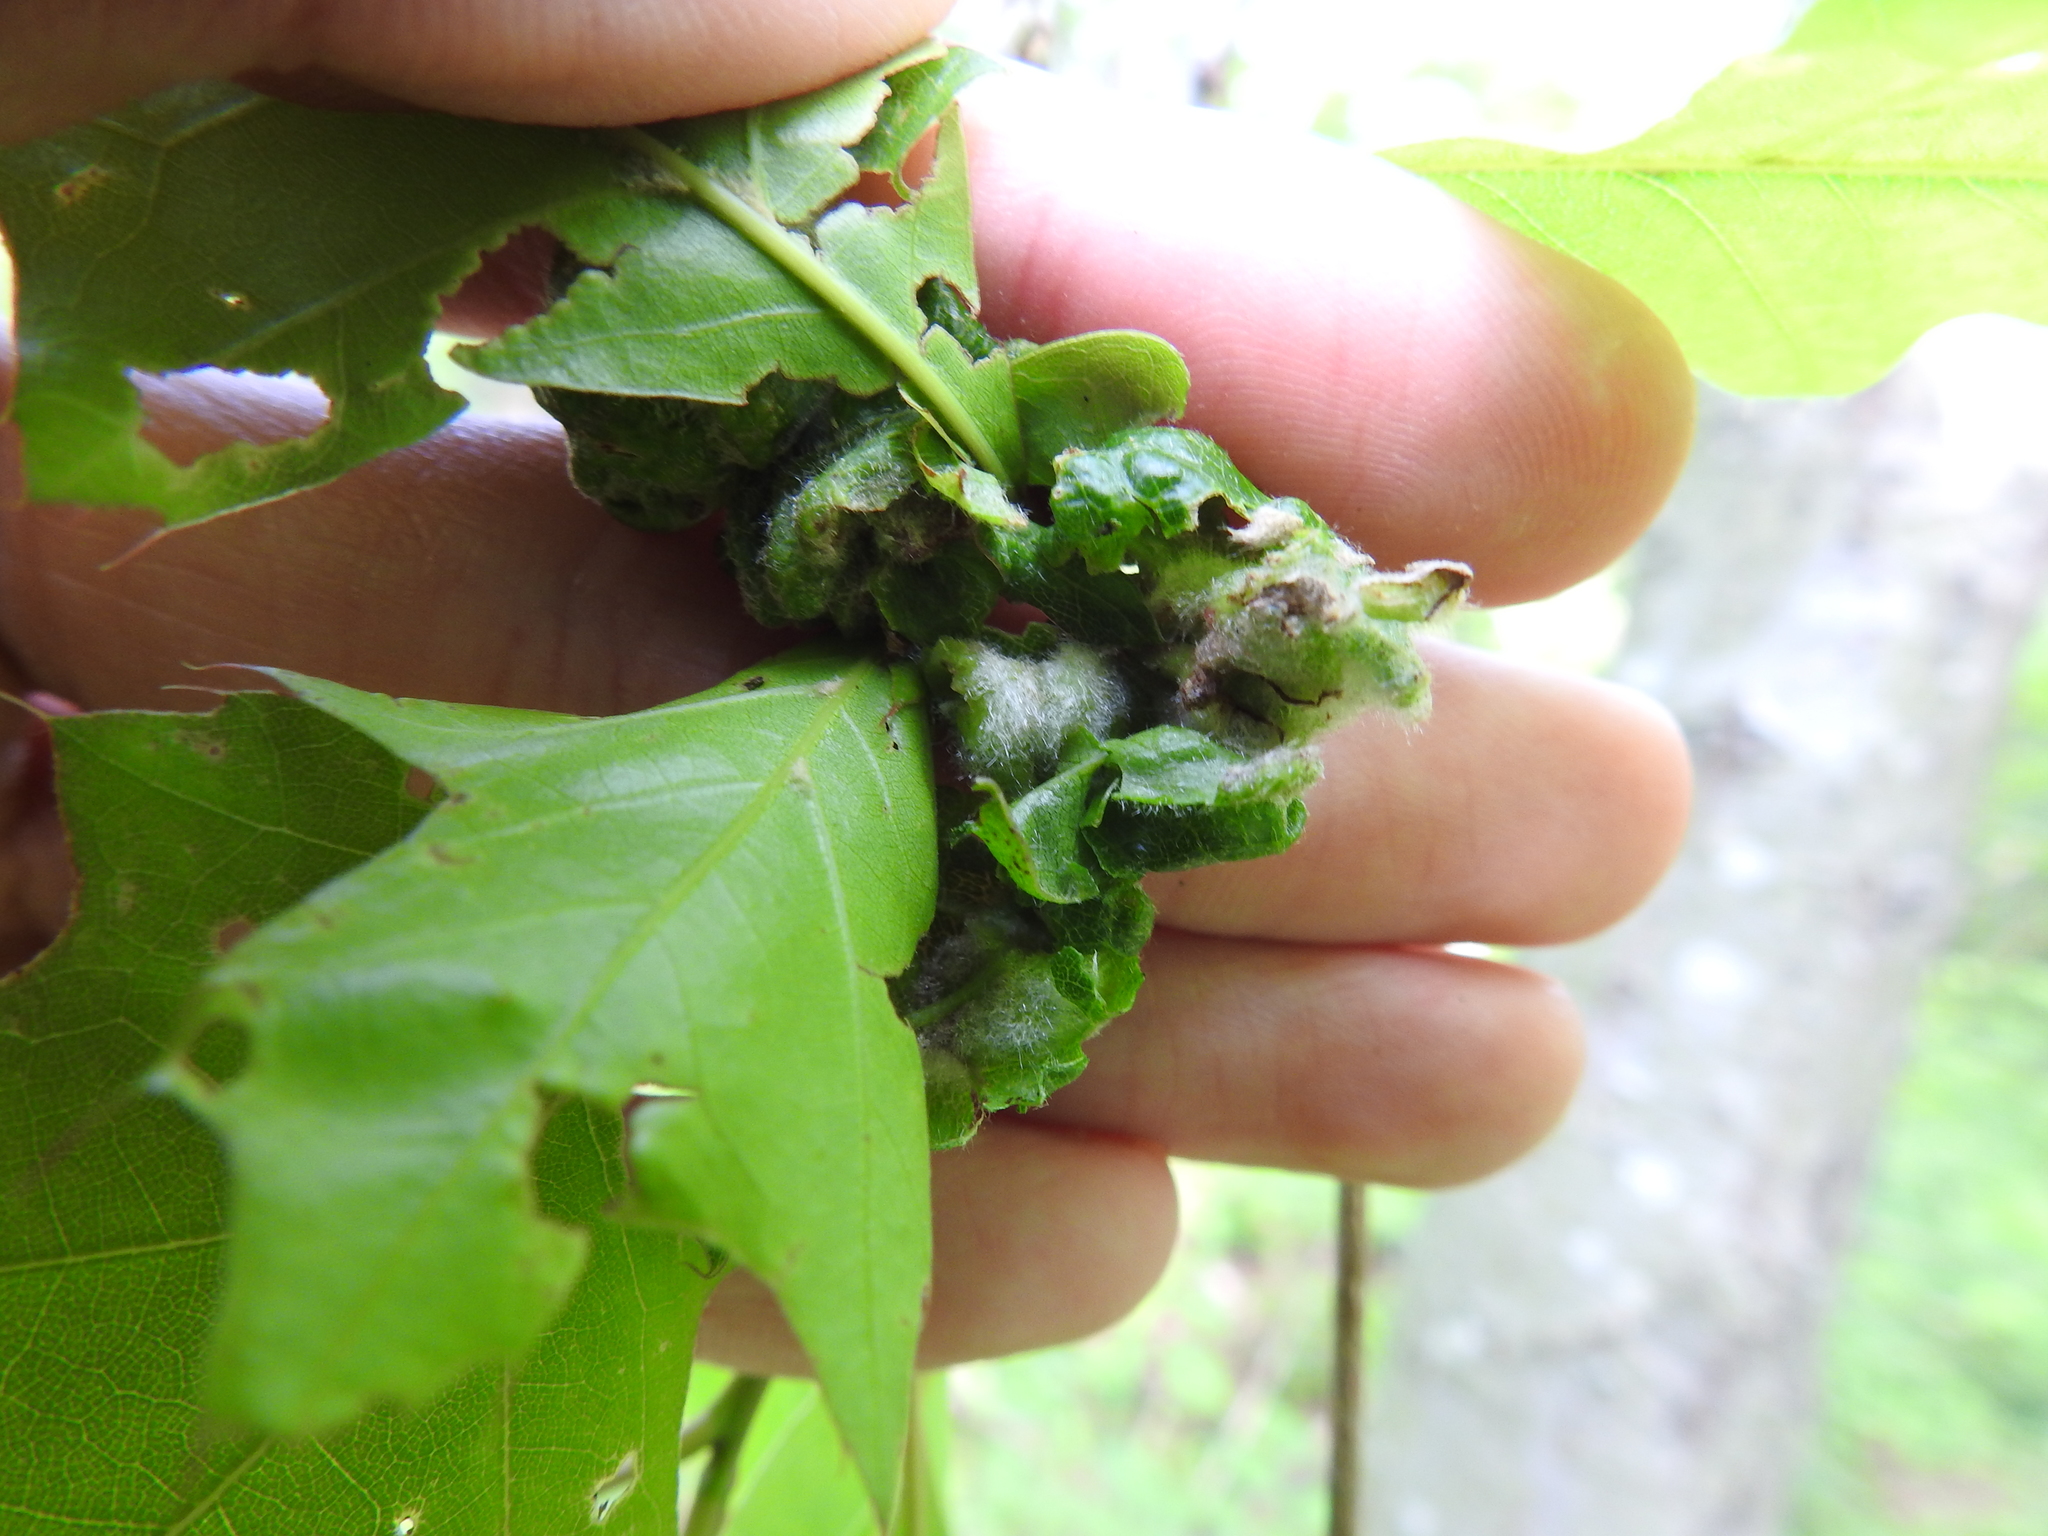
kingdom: Animalia
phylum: Arthropoda
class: Insecta
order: Diptera
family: Cecidomyiidae
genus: Macrodiplosis
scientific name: Macrodiplosis niveipila
